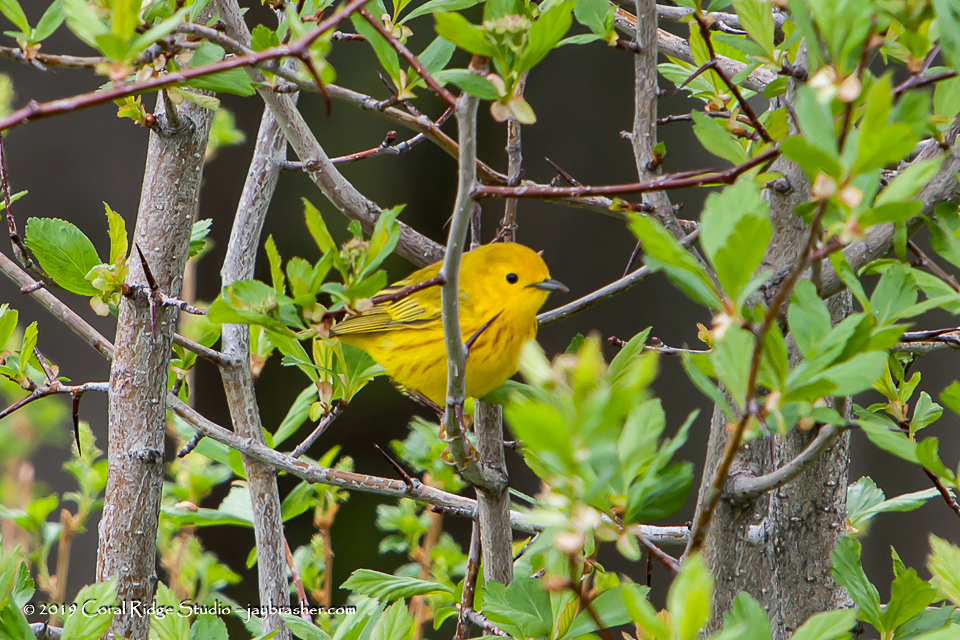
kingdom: Animalia
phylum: Chordata
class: Aves
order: Passeriformes
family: Parulidae
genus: Setophaga
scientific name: Setophaga petechia
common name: Yellow warbler
